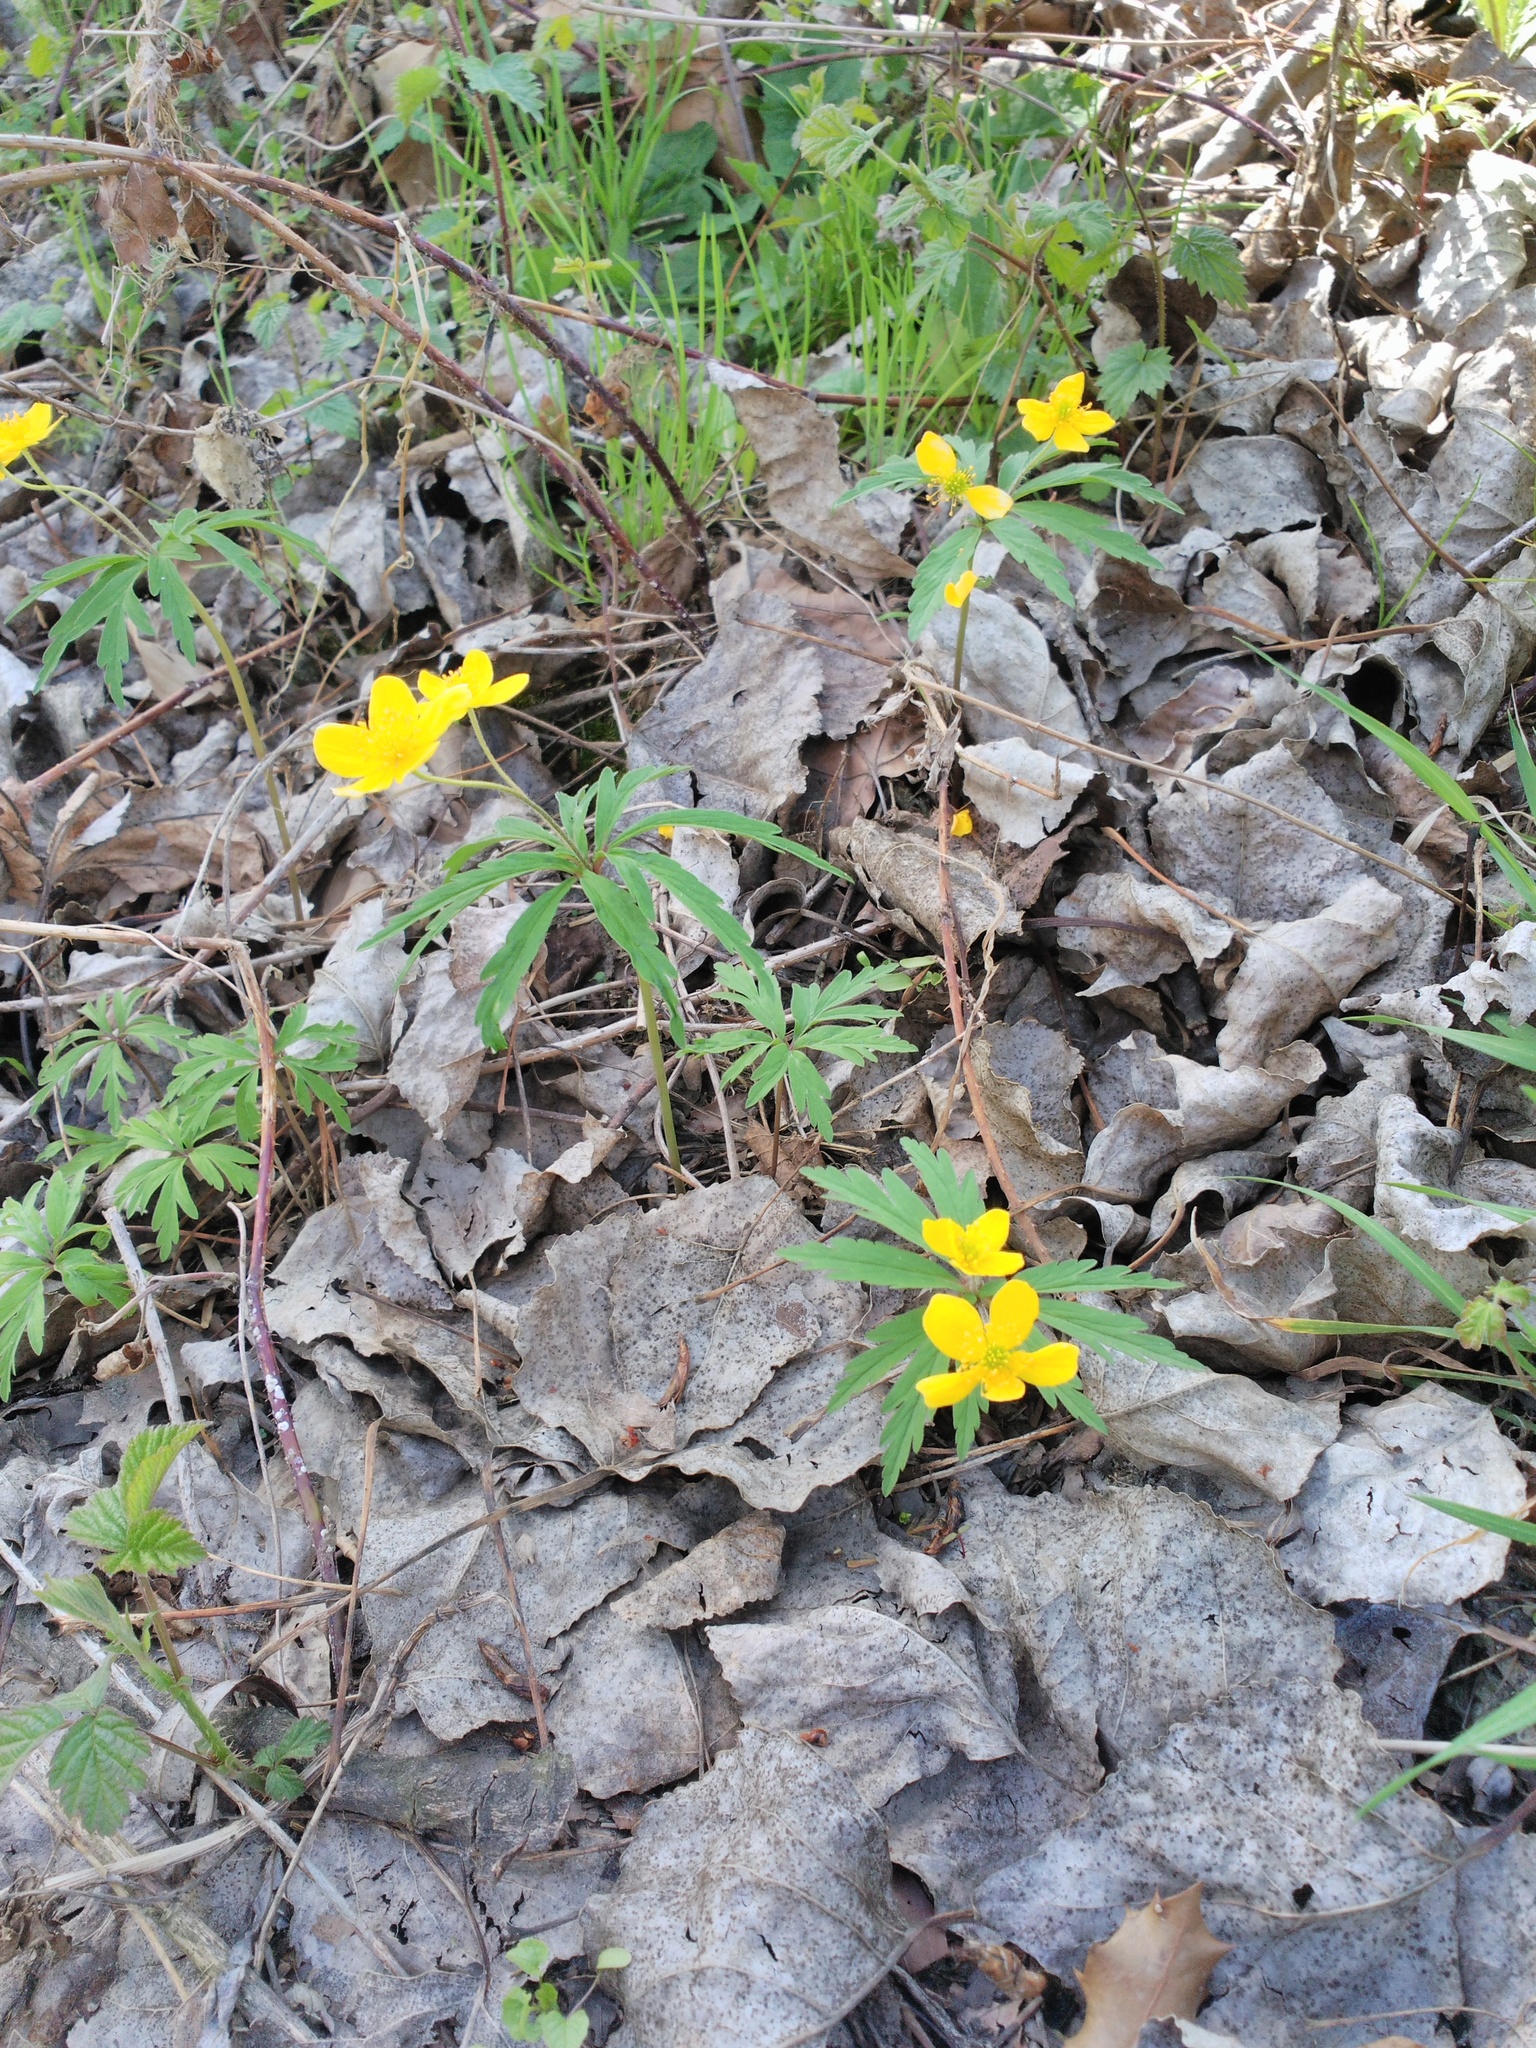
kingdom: Plantae
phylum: Tracheophyta
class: Magnoliopsida
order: Ranunculales
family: Ranunculaceae
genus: Anemone
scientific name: Anemone ranunculoides
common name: Yellow anemone
